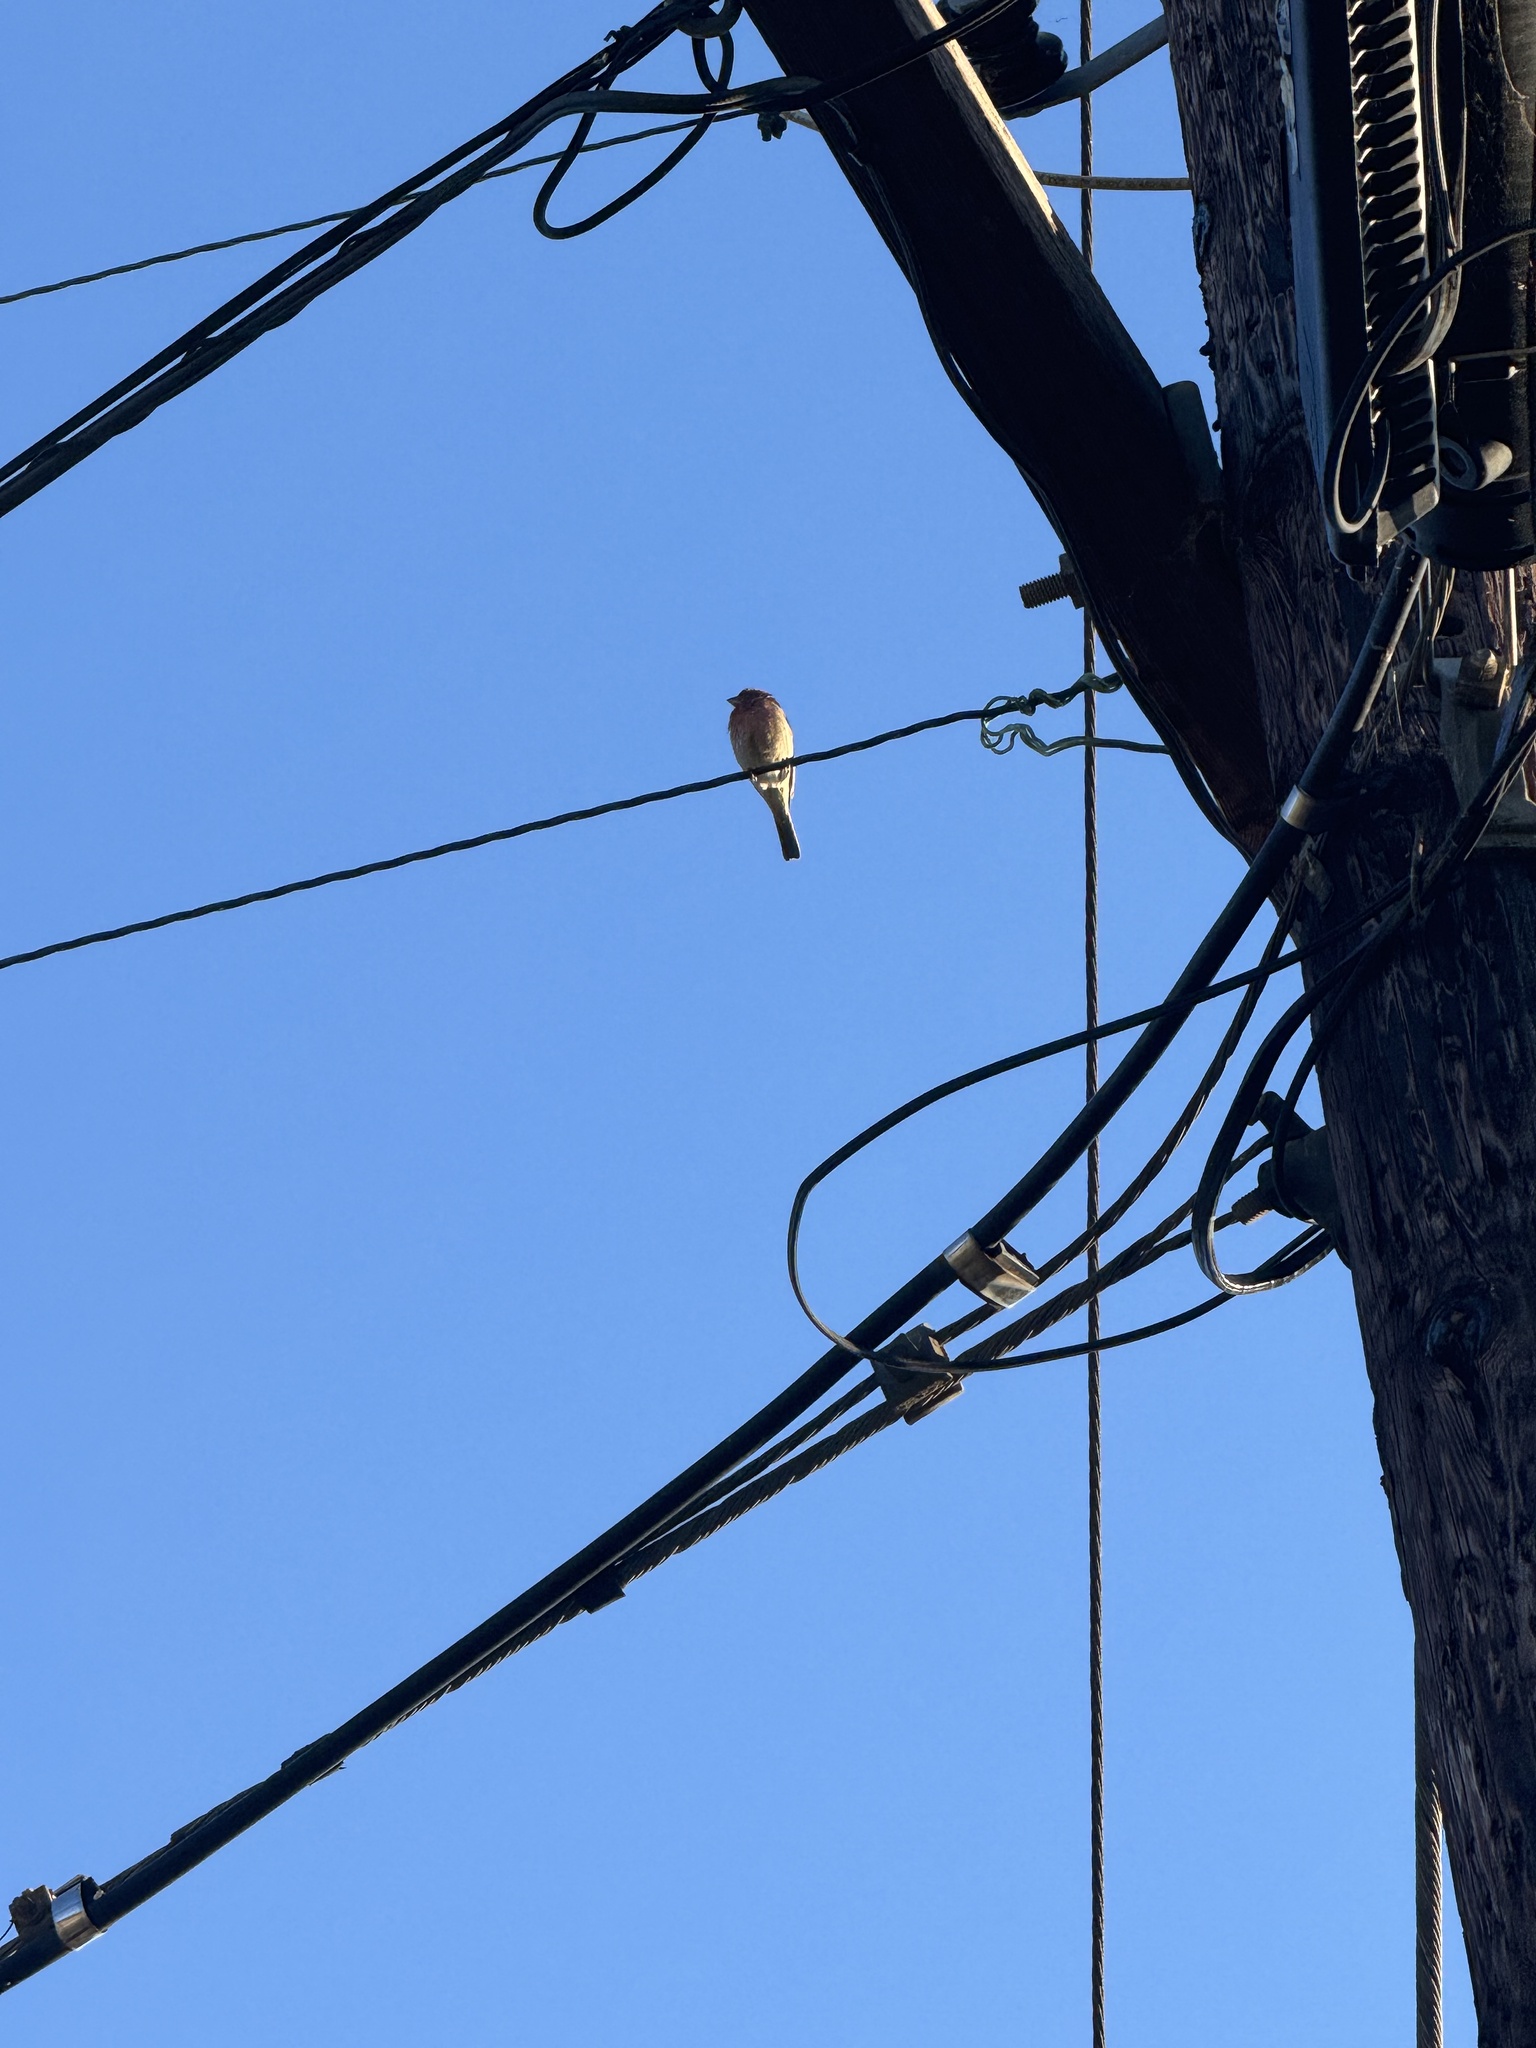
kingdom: Animalia
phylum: Chordata
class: Aves
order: Passeriformes
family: Fringillidae
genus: Haemorhous
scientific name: Haemorhous mexicanus
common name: House finch
